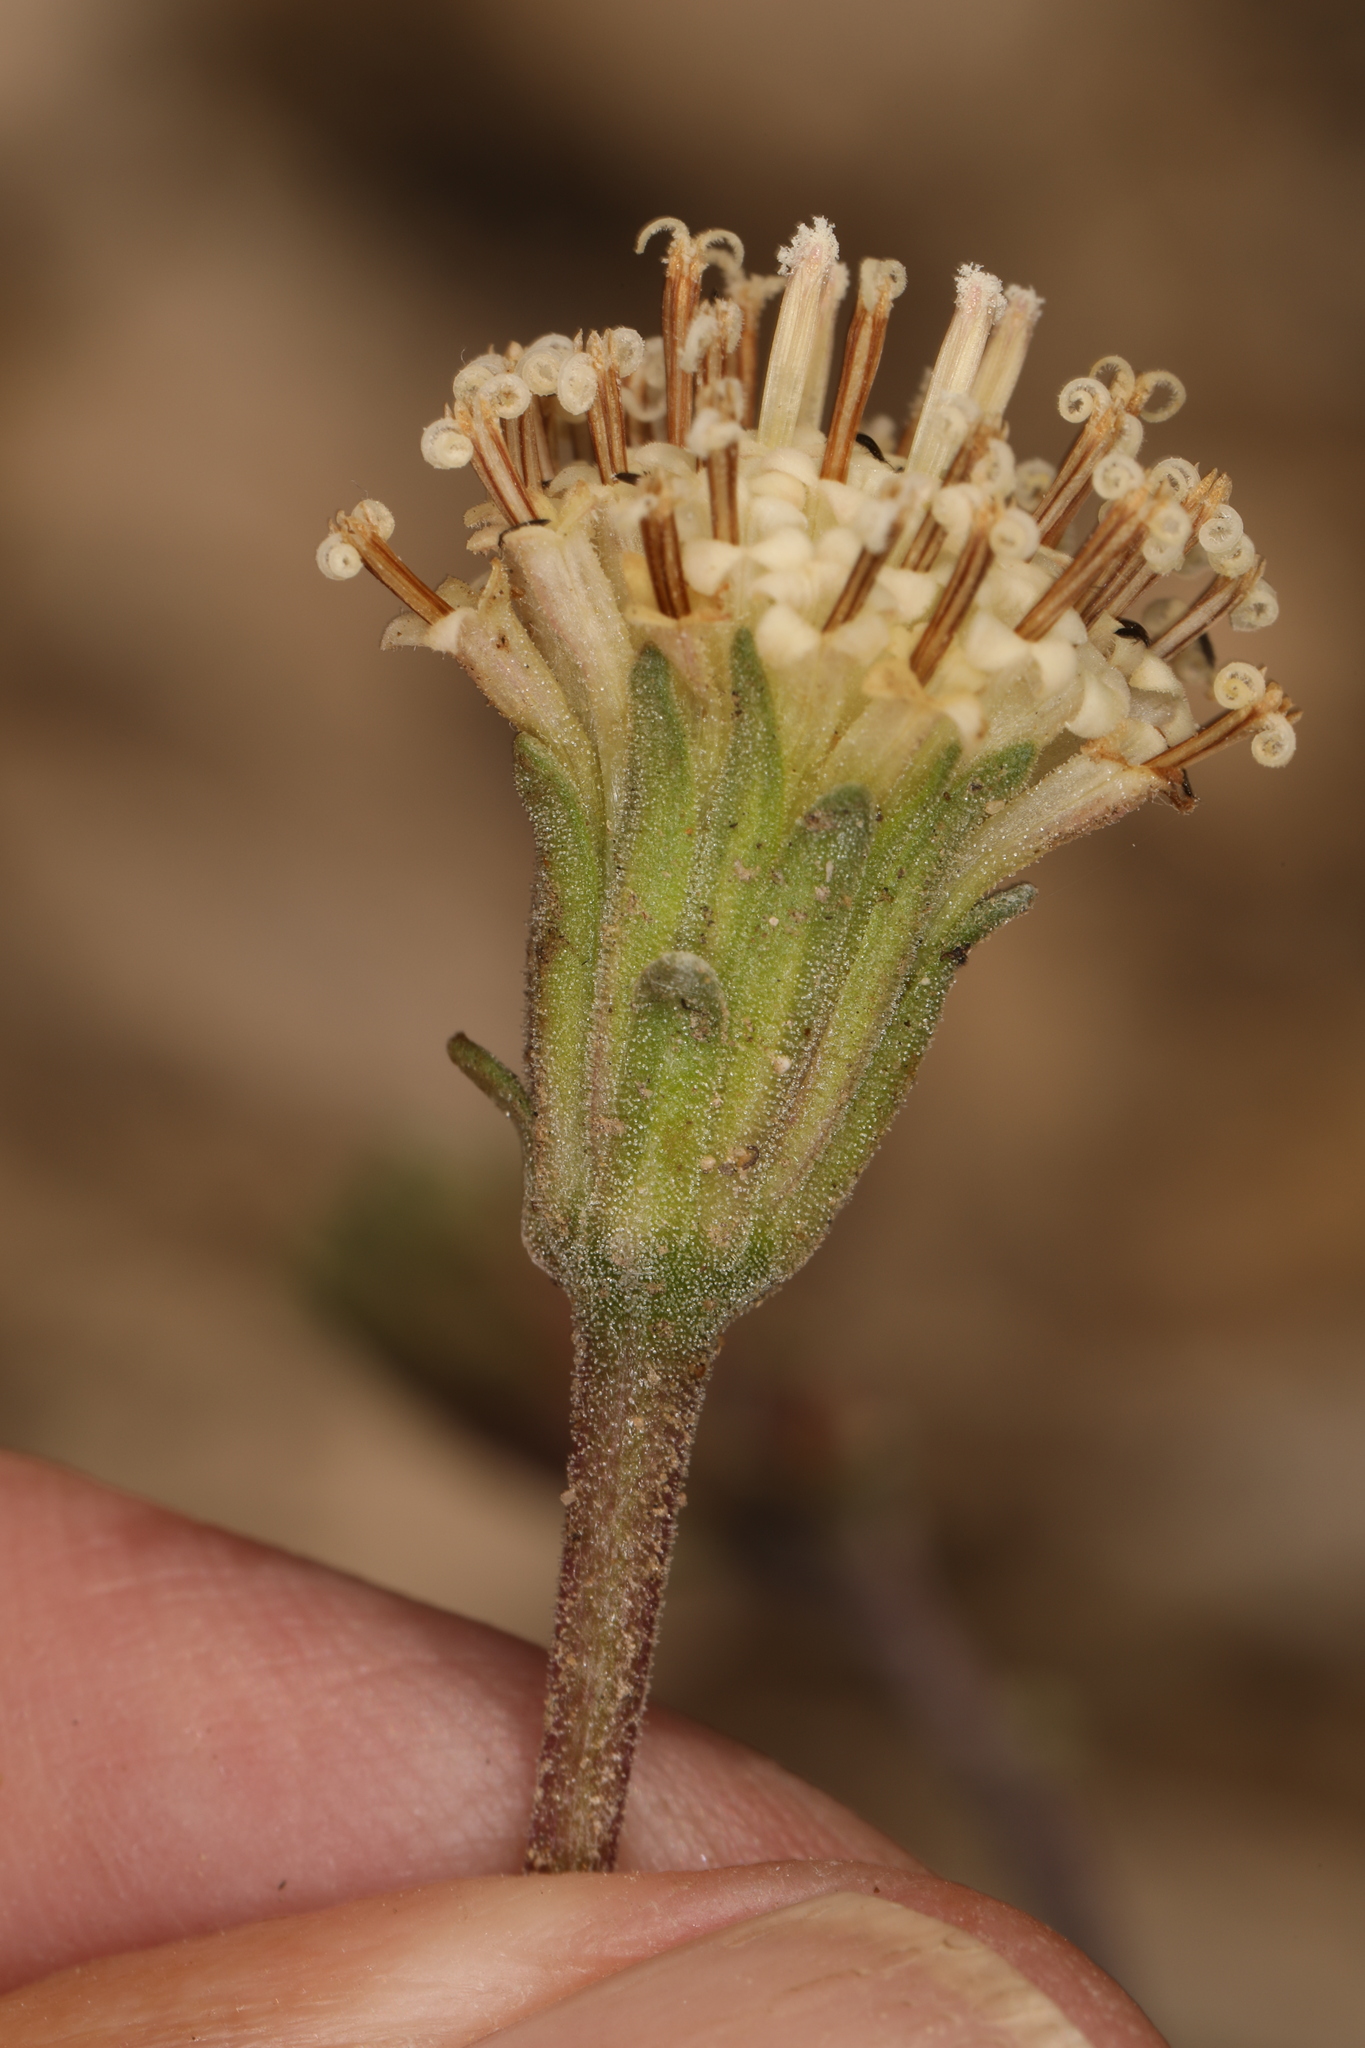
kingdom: Plantae
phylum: Tracheophyta
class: Magnoliopsida
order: Asterales
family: Asteraceae
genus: Chaenactis
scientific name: Chaenactis douglasii
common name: Hoary pincushion
